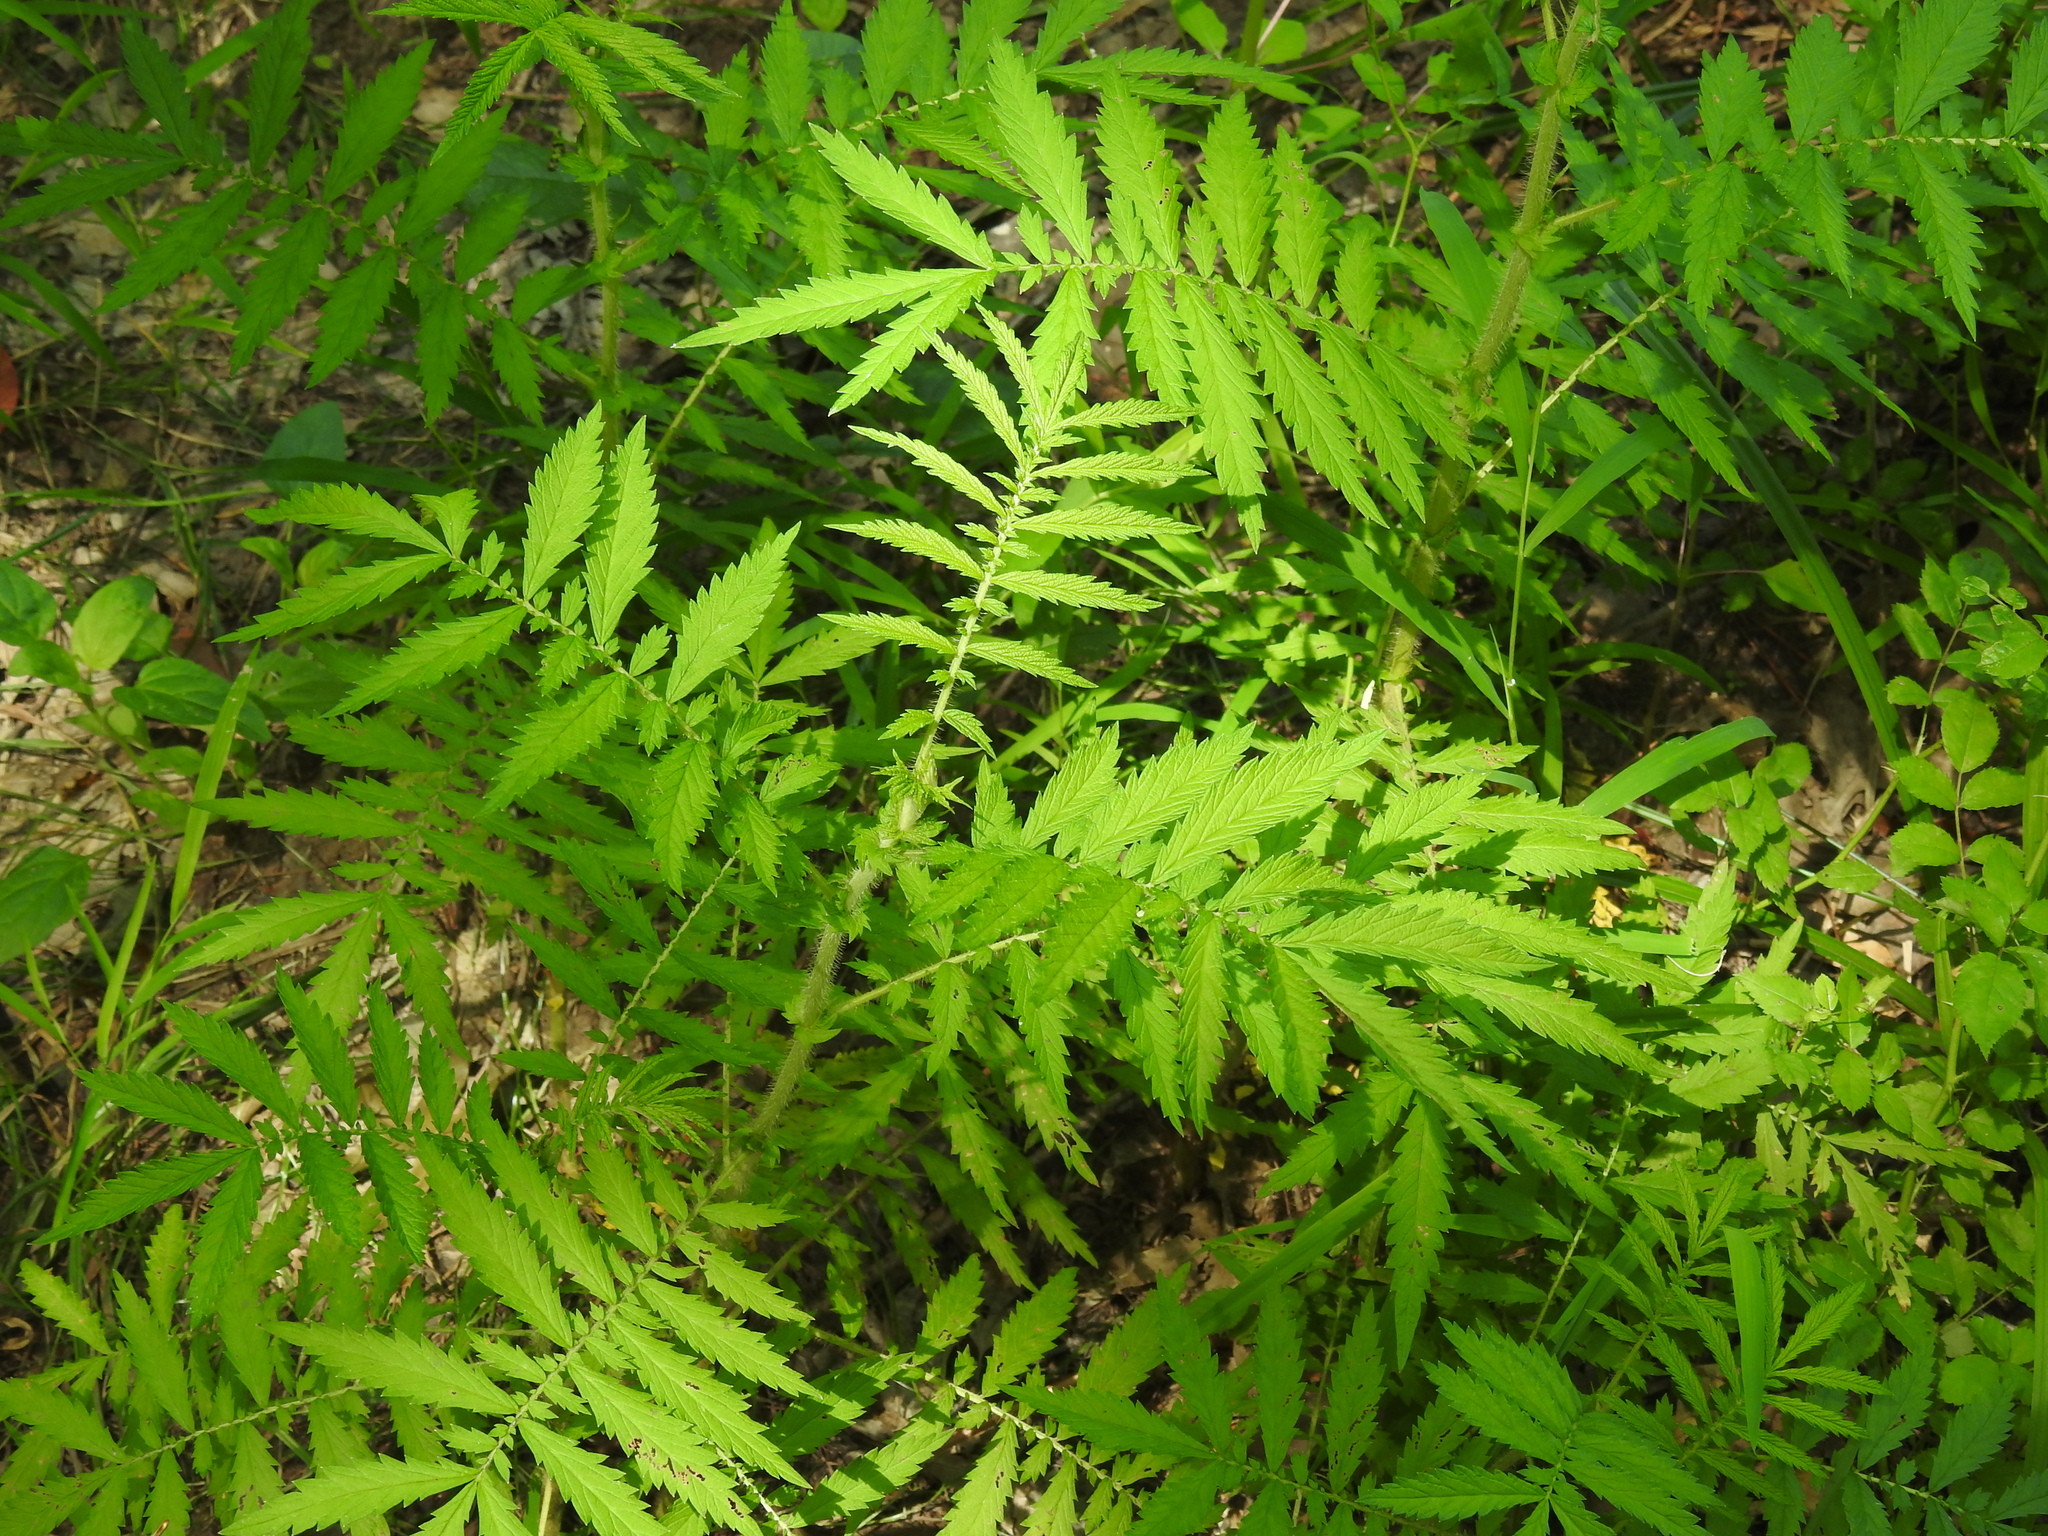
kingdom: Plantae
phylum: Tracheophyta
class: Magnoliopsida
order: Rosales
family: Rosaceae
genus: Agrimonia
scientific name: Agrimonia parviflora
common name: Harvest-lice
